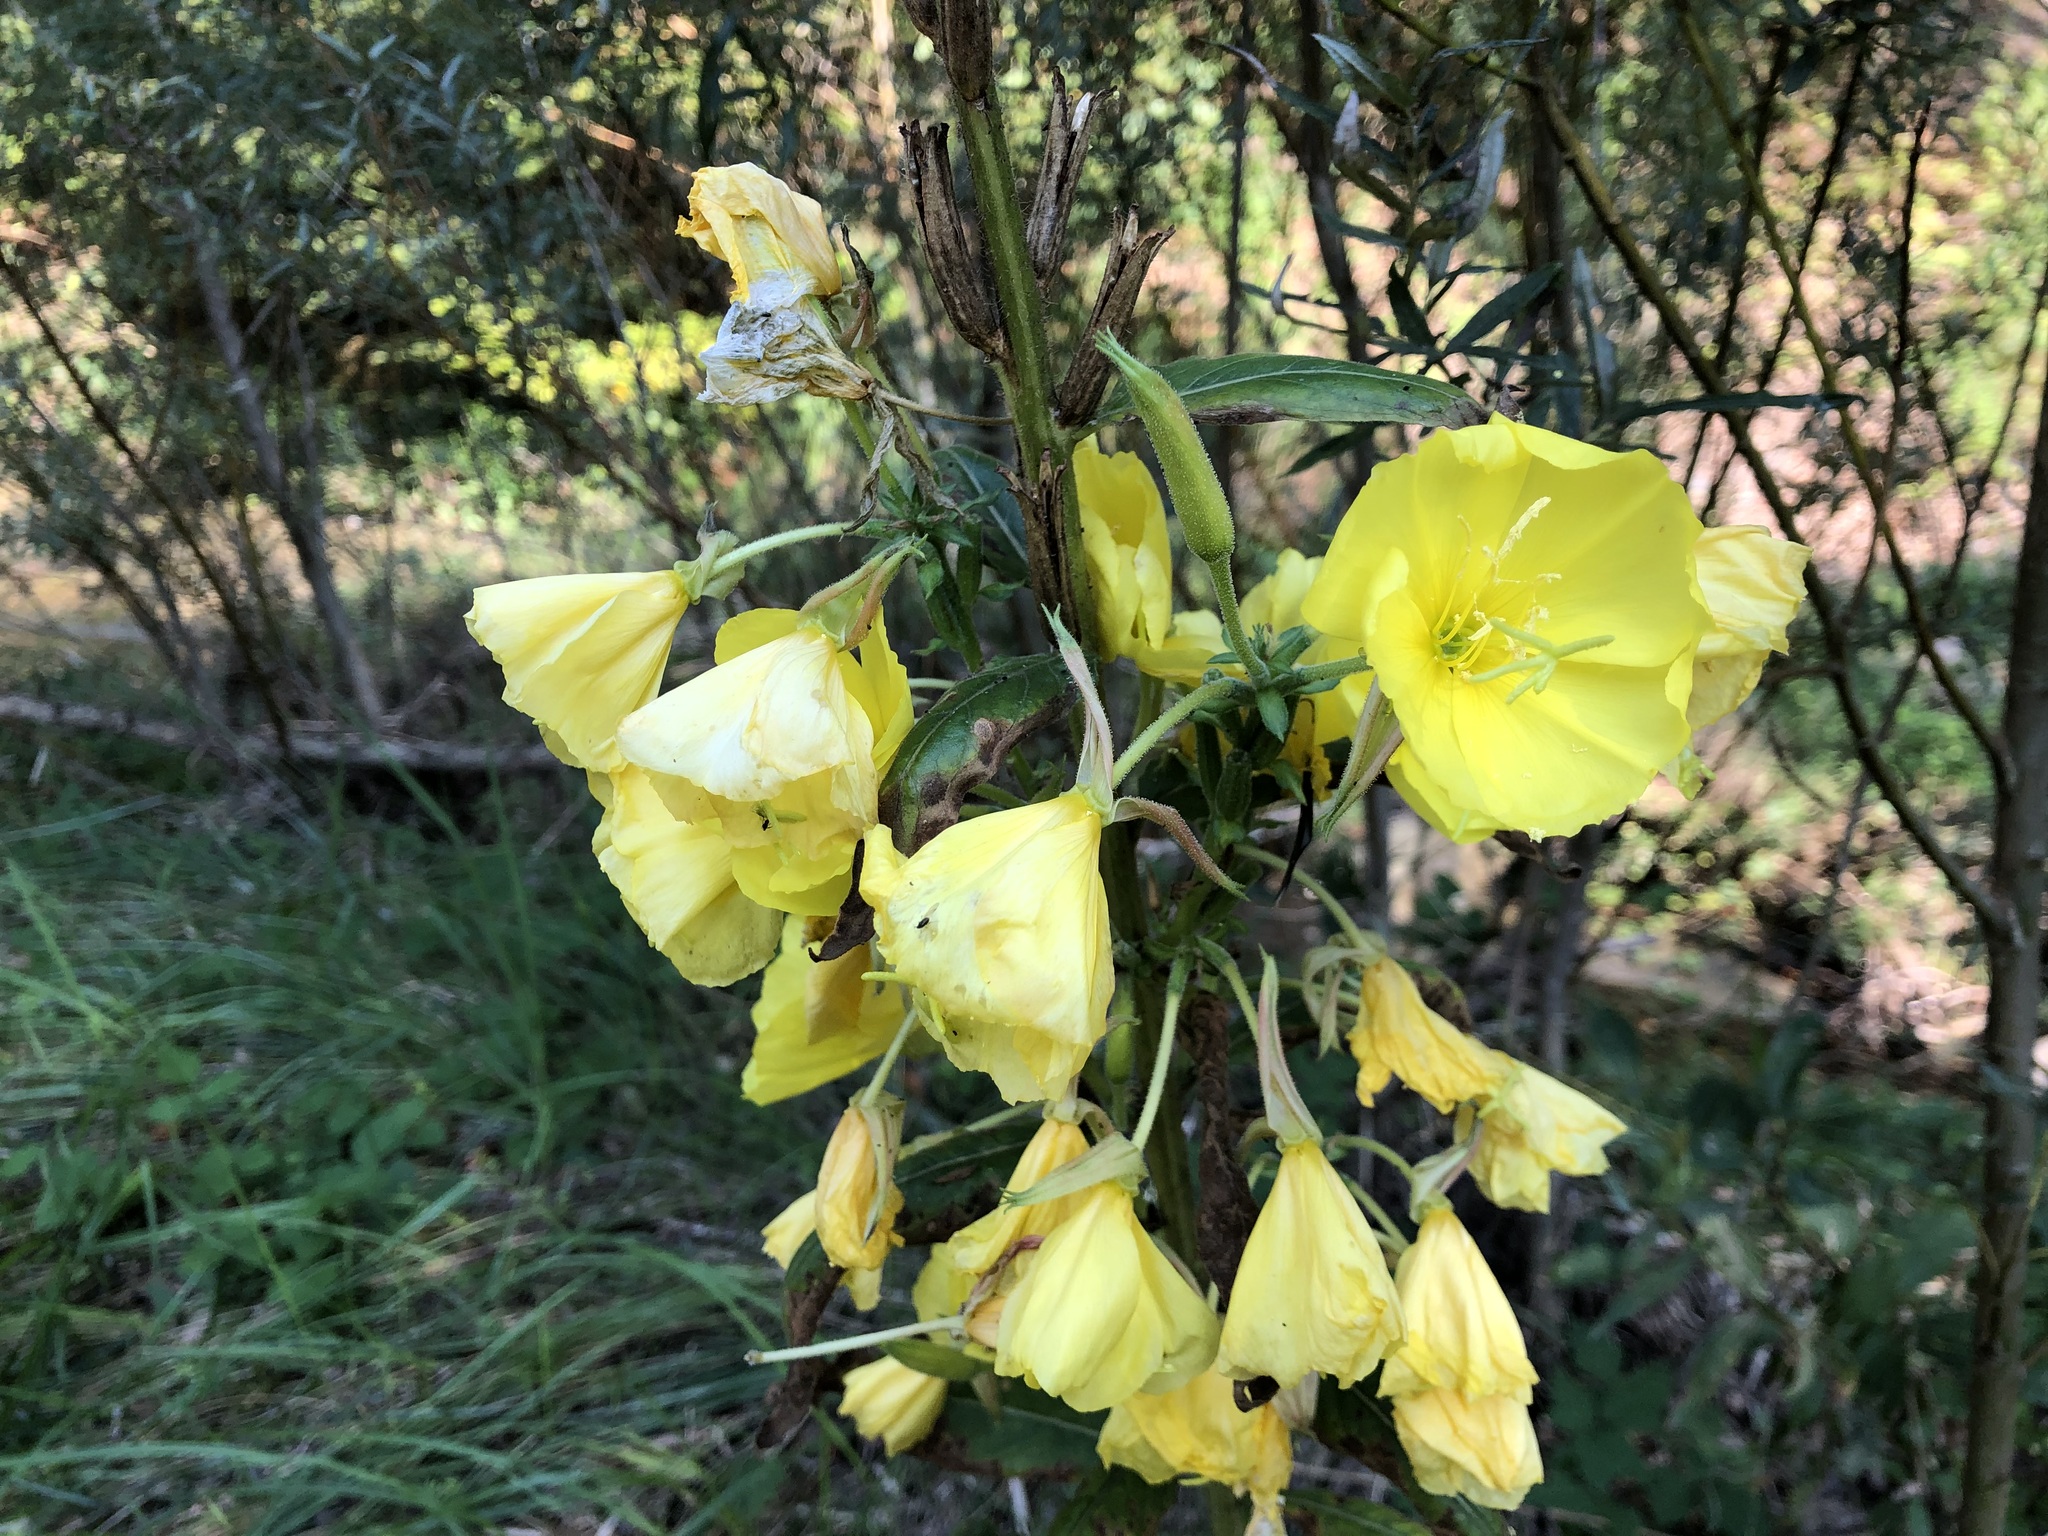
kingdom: Plantae
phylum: Tracheophyta
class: Magnoliopsida
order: Myrtales
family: Onagraceae
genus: Oenothera
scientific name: Oenothera glazioviana
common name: Large-flowered evening-primrose
